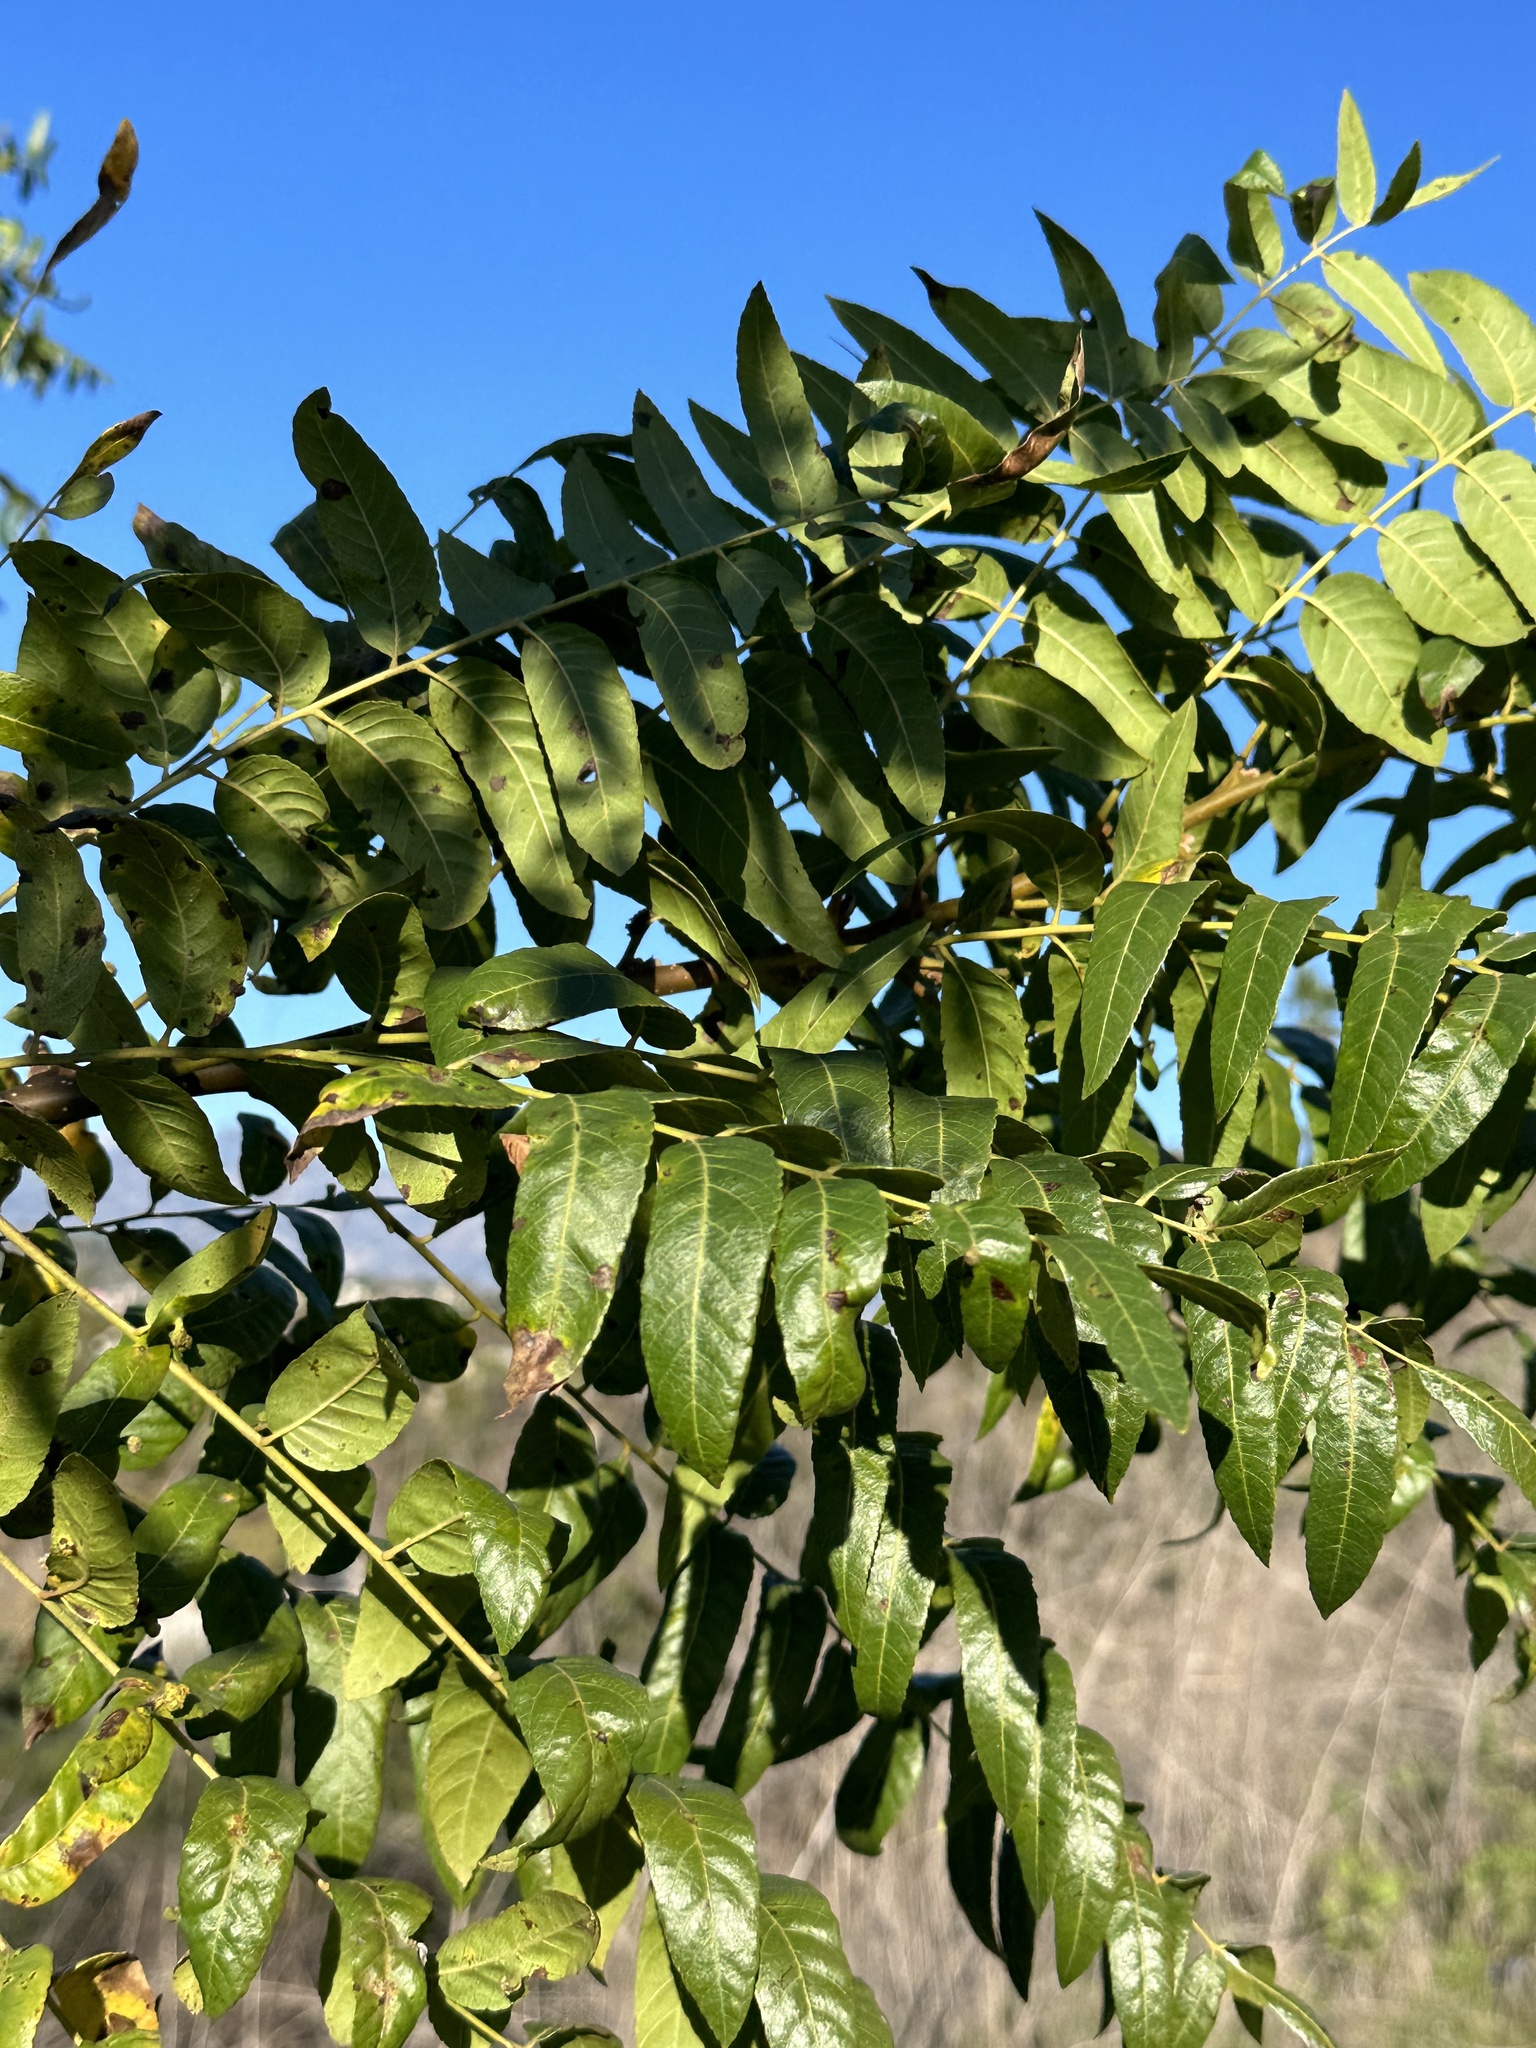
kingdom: Plantae
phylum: Tracheophyta
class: Magnoliopsida
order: Fagales
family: Juglandaceae
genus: Juglans
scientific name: Juglans californica
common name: Southern california black walnut
